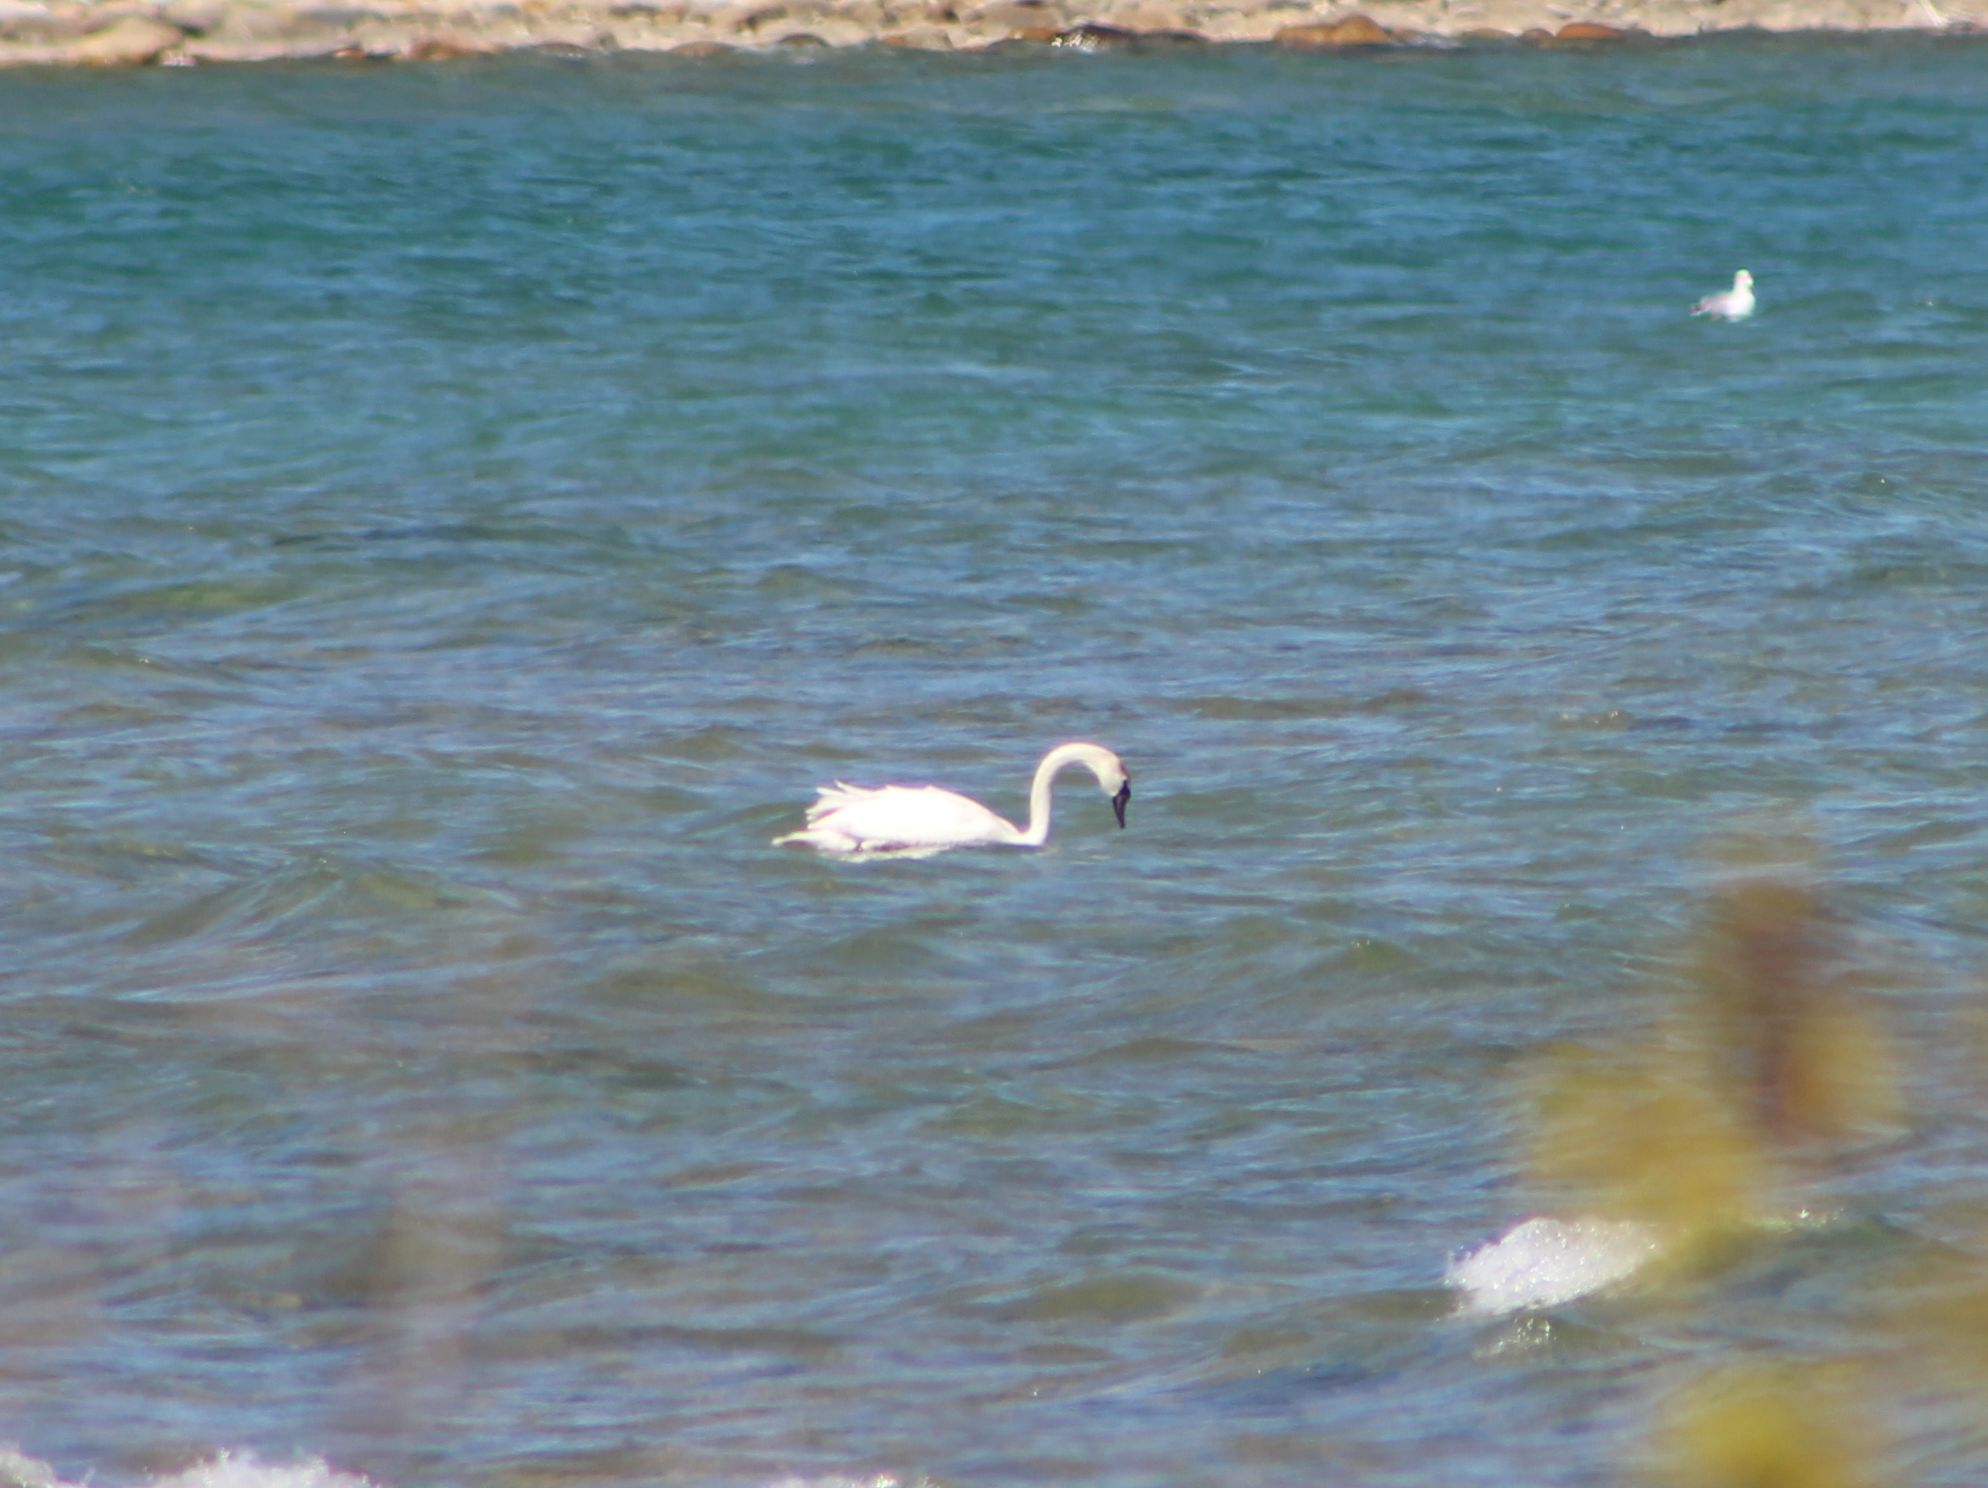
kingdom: Animalia
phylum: Chordata
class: Aves
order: Anseriformes
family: Anatidae
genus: Cygnus
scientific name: Cygnus olor
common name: Mute swan
